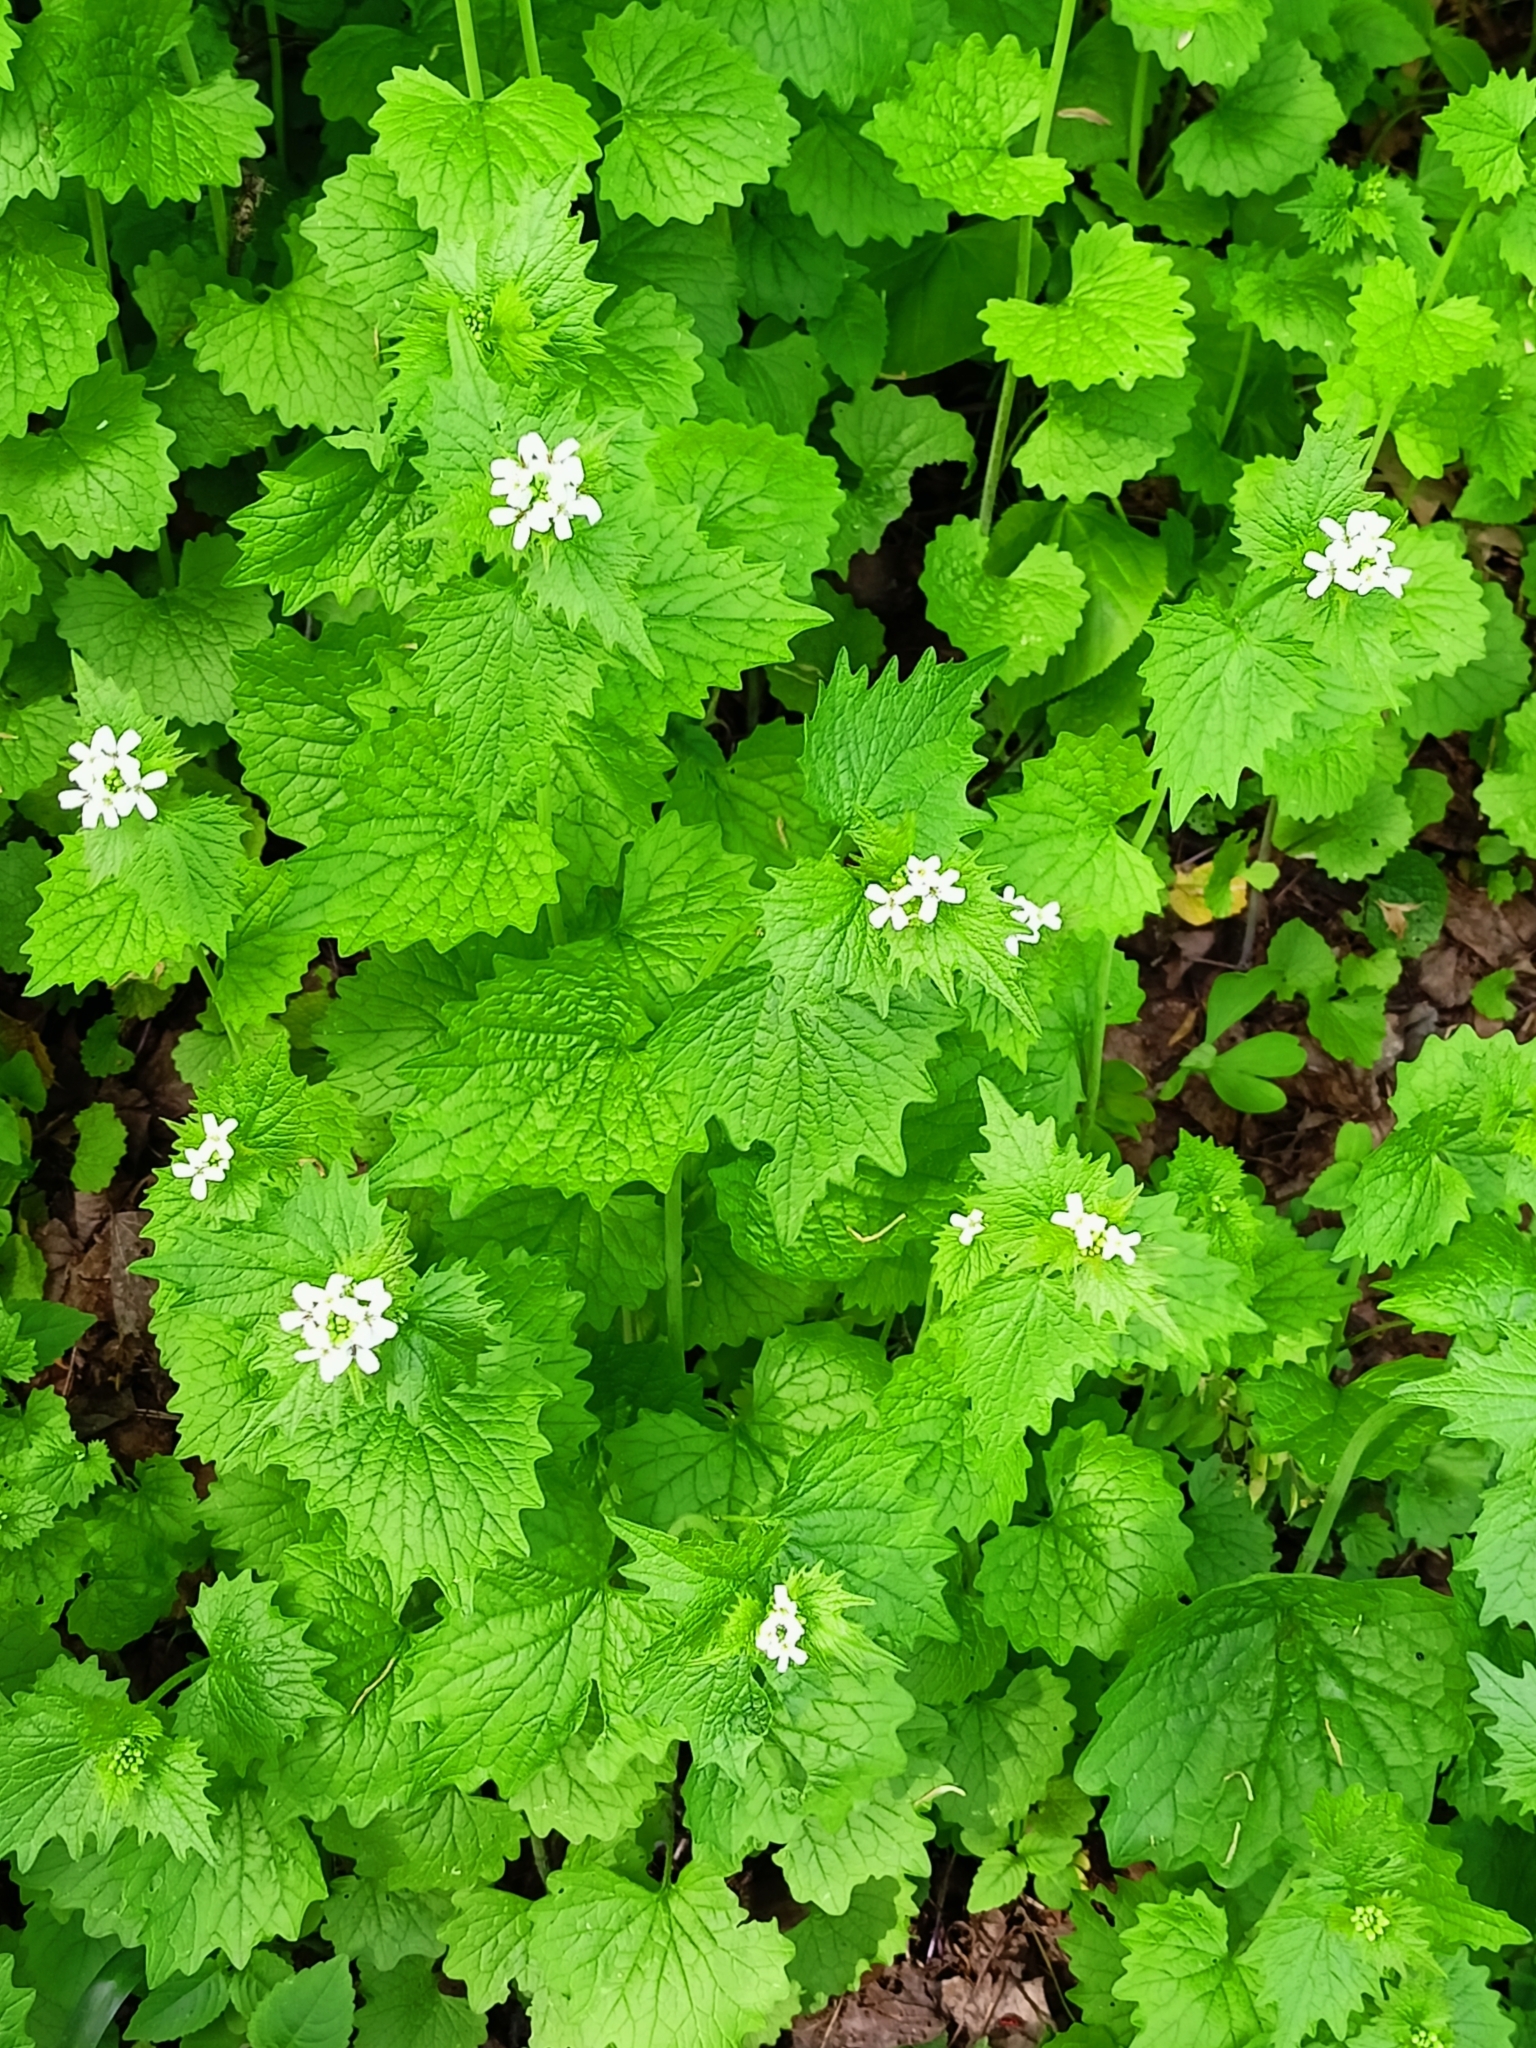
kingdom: Plantae
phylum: Tracheophyta
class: Magnoliopsida
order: Brassicales
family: Brassicaceae
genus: Alliaria
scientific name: Alliaria petiolata
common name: Garlic mustard
